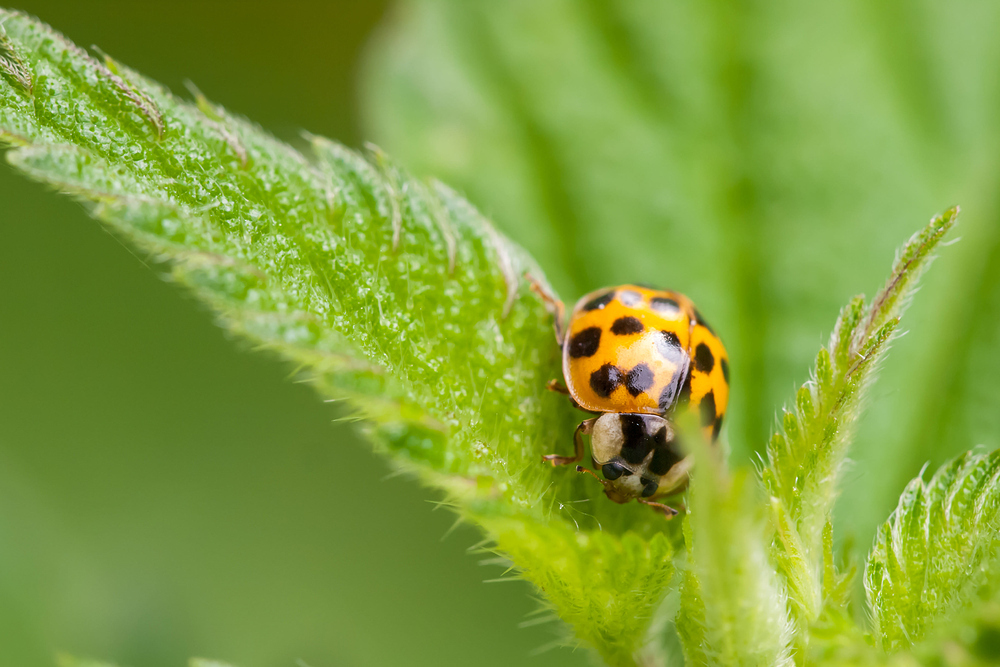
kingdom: Animalia
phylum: Arthropoda
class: Insecta
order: Coleoptera
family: Coccinellidae
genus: Harmonia
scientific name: Harmonia axyridis
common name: Harlequin ladybird
